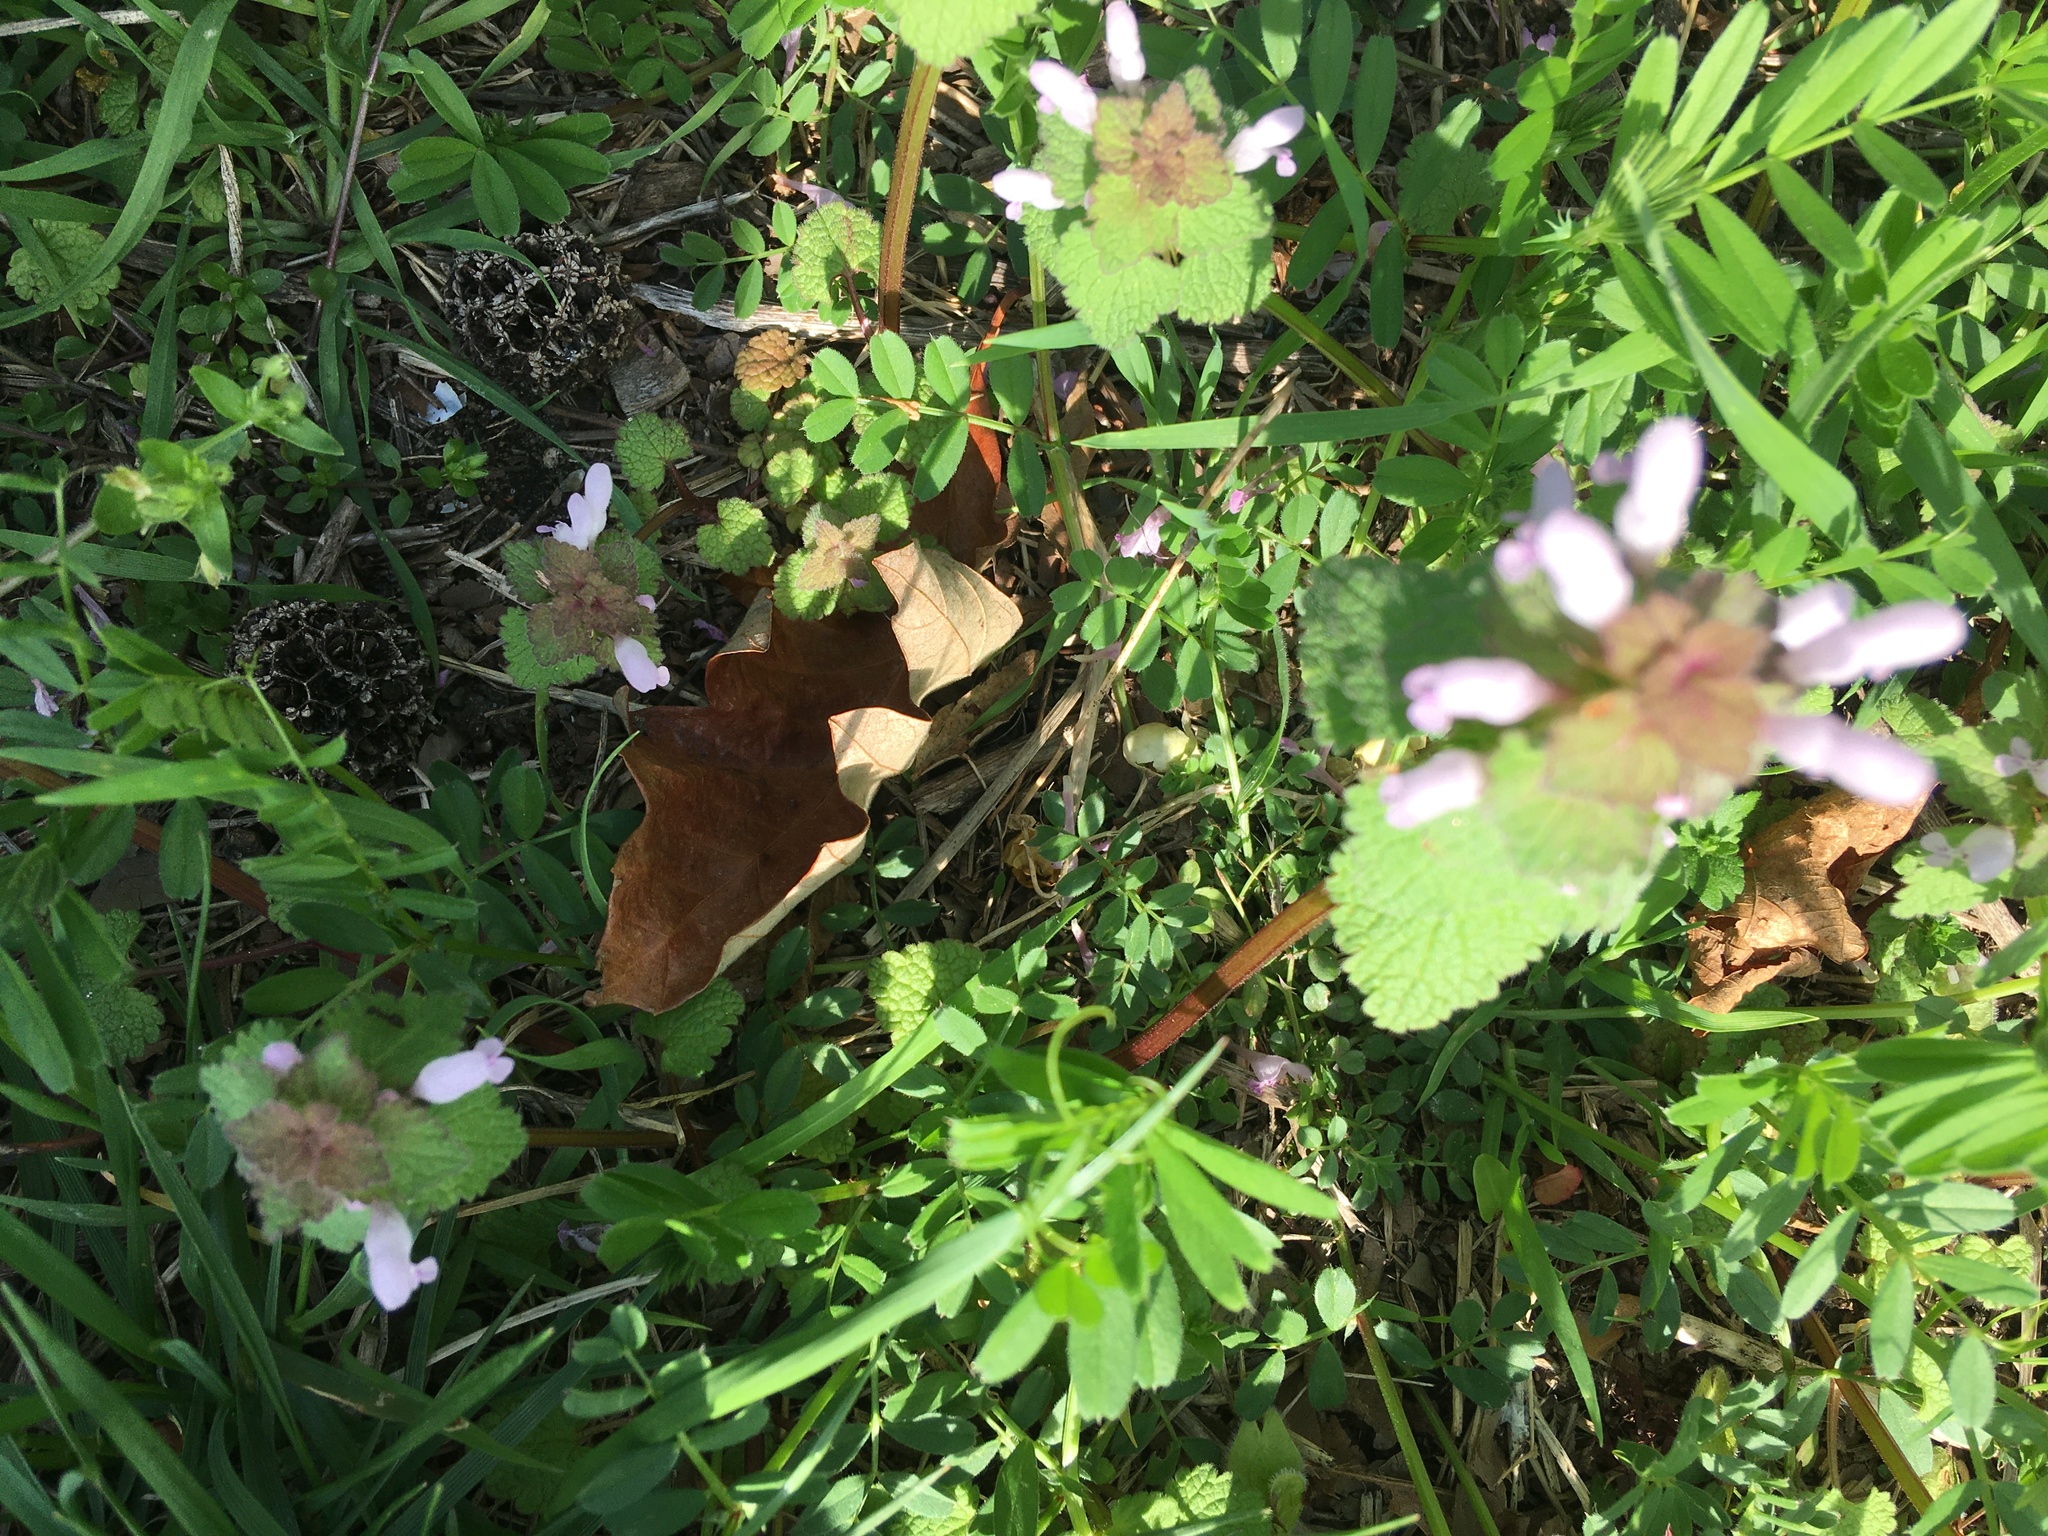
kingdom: Plantae
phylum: Tracheophyta
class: Magnoliopsida
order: Lamiales
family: Lamiaceae
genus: Lamium
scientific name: Lamium purpureum
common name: Red dead-nettle
